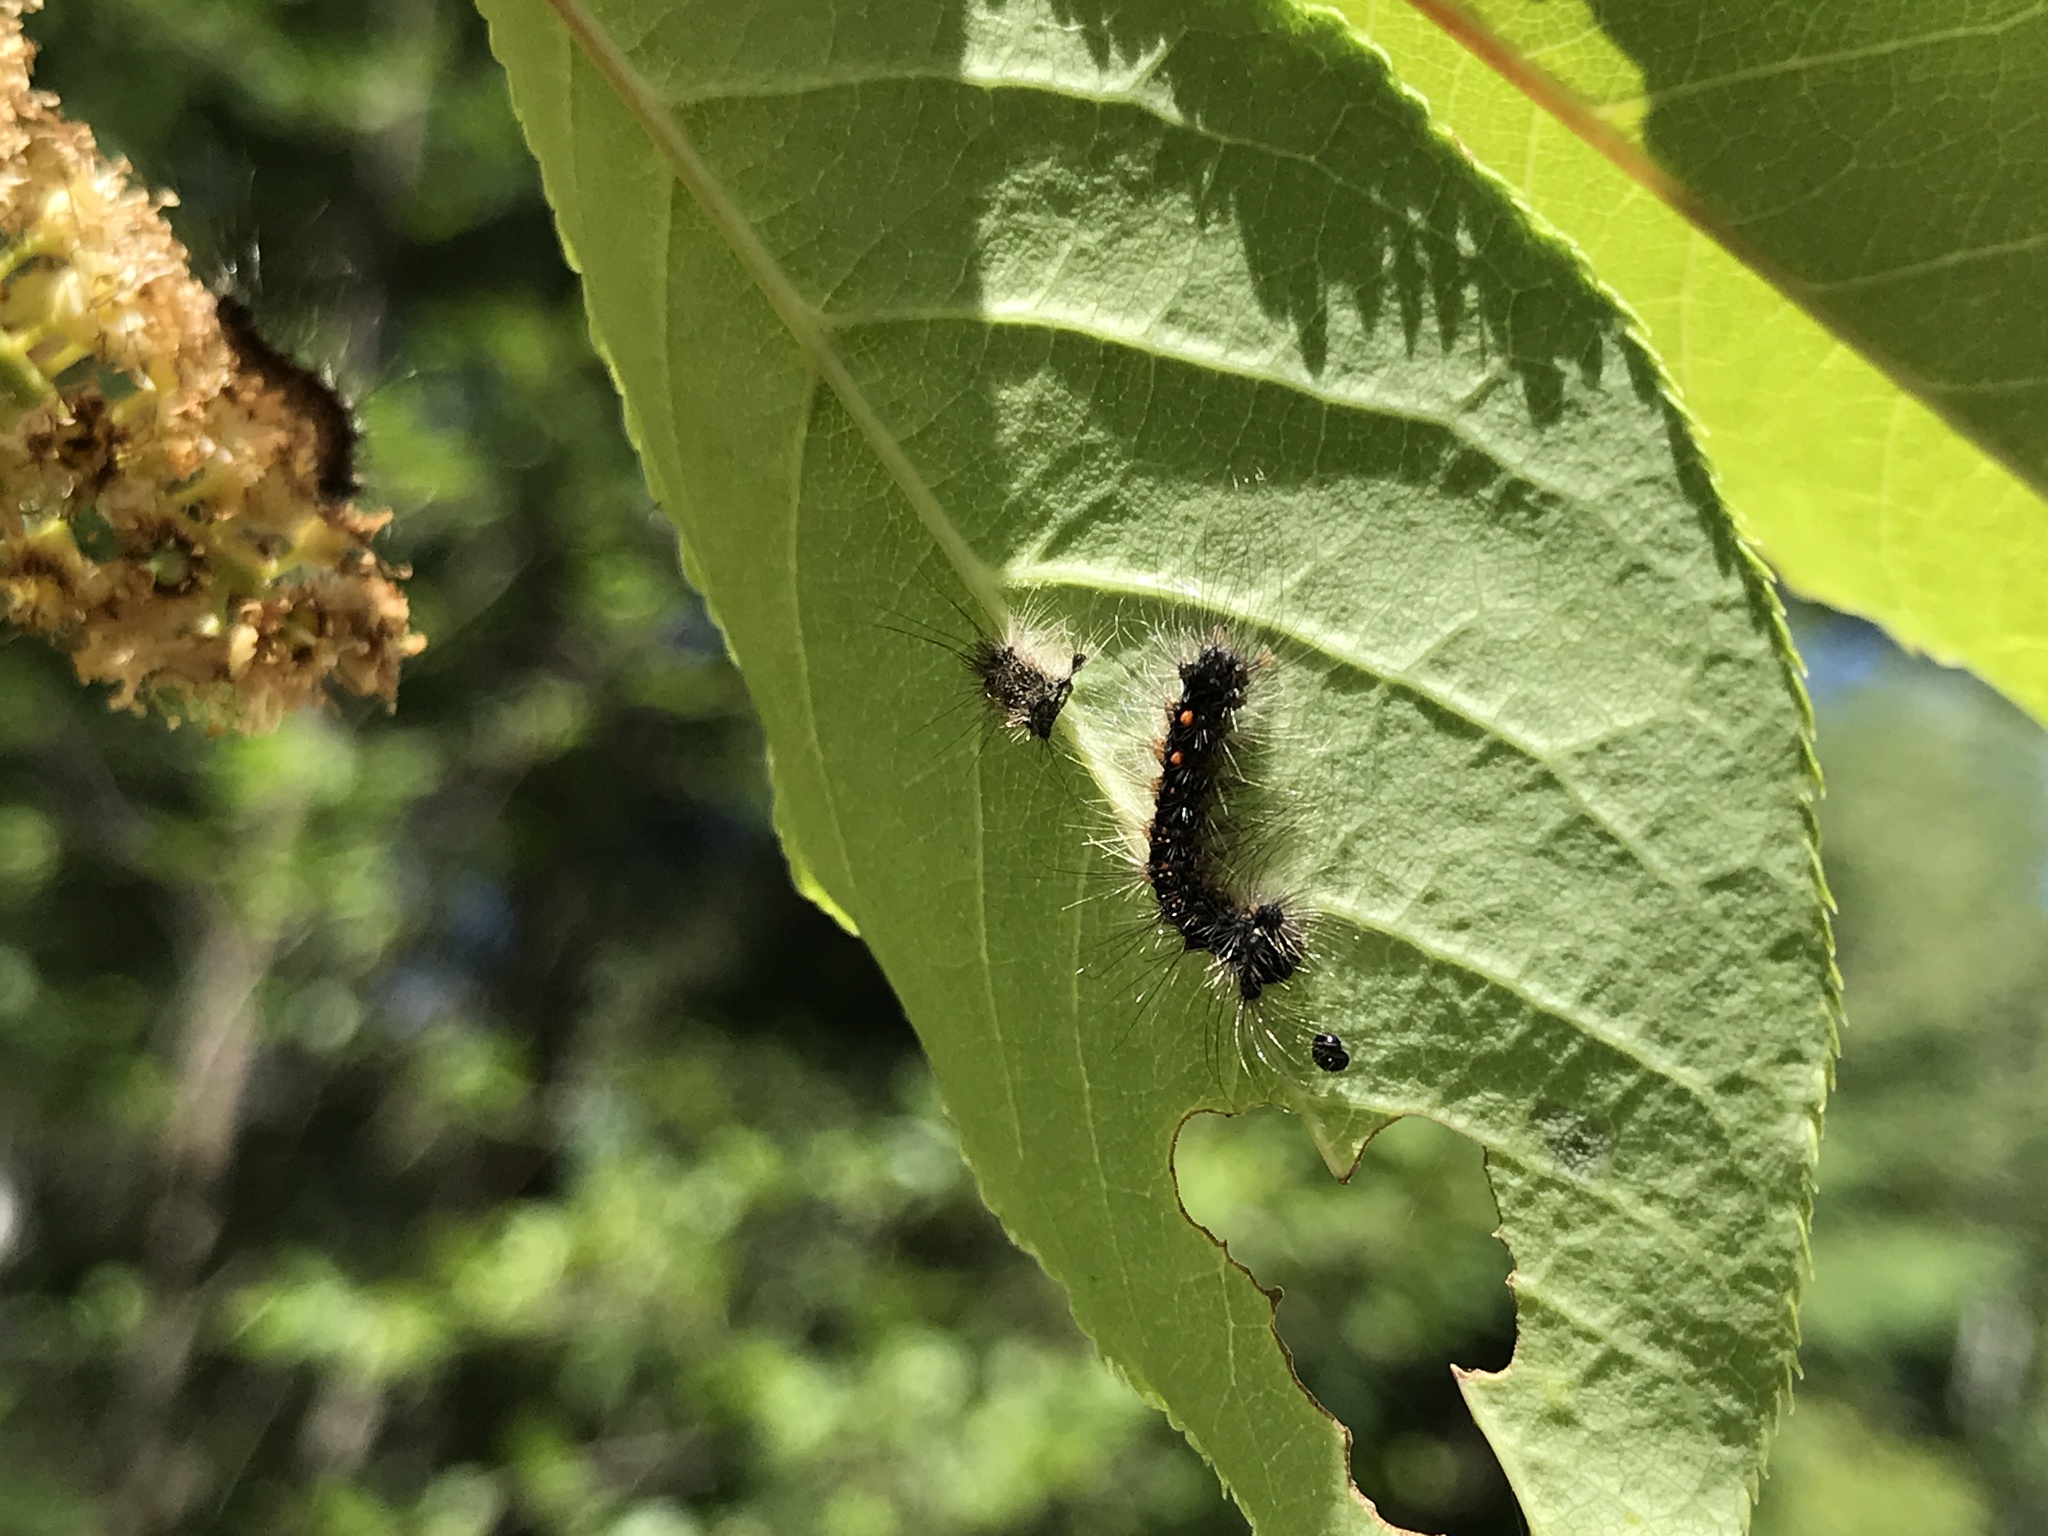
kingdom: Animalia
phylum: Arthropoda
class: Insecta
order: Lepidoptera
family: Erebidae
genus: Lymantria
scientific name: Lymantria dispar
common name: Gypsy moth
